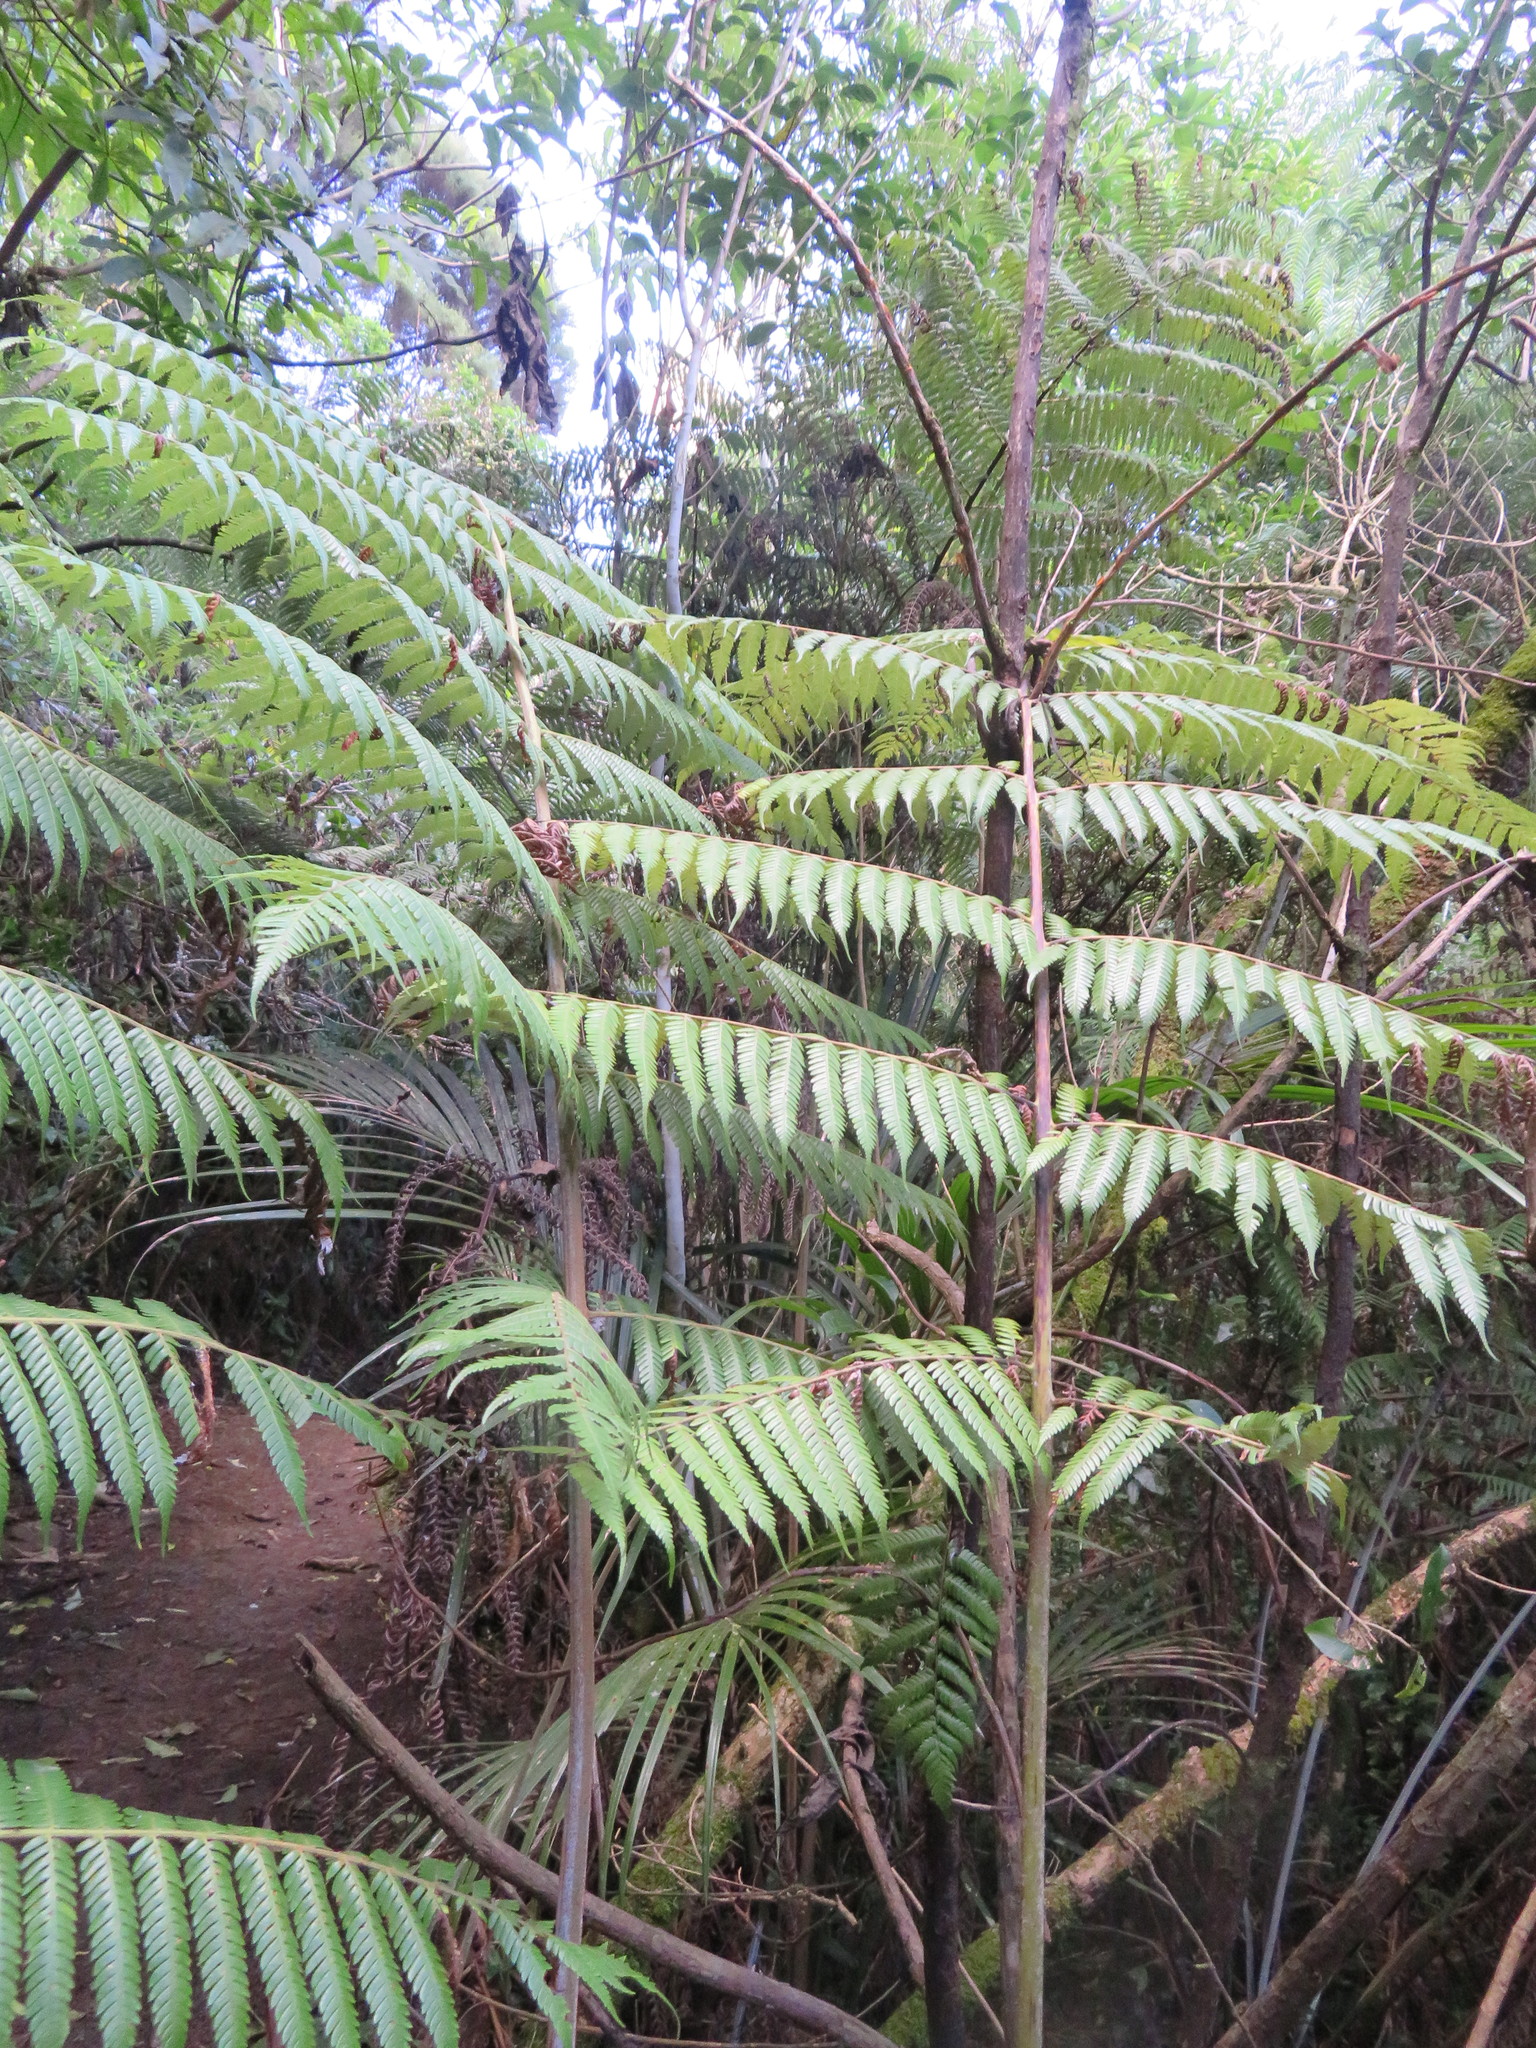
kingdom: Plantae
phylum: Tracheophyta
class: Polypodiopsida
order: Cyatheales
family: Cyatheaceae
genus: Alsophila
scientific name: Alsophila dealbata
